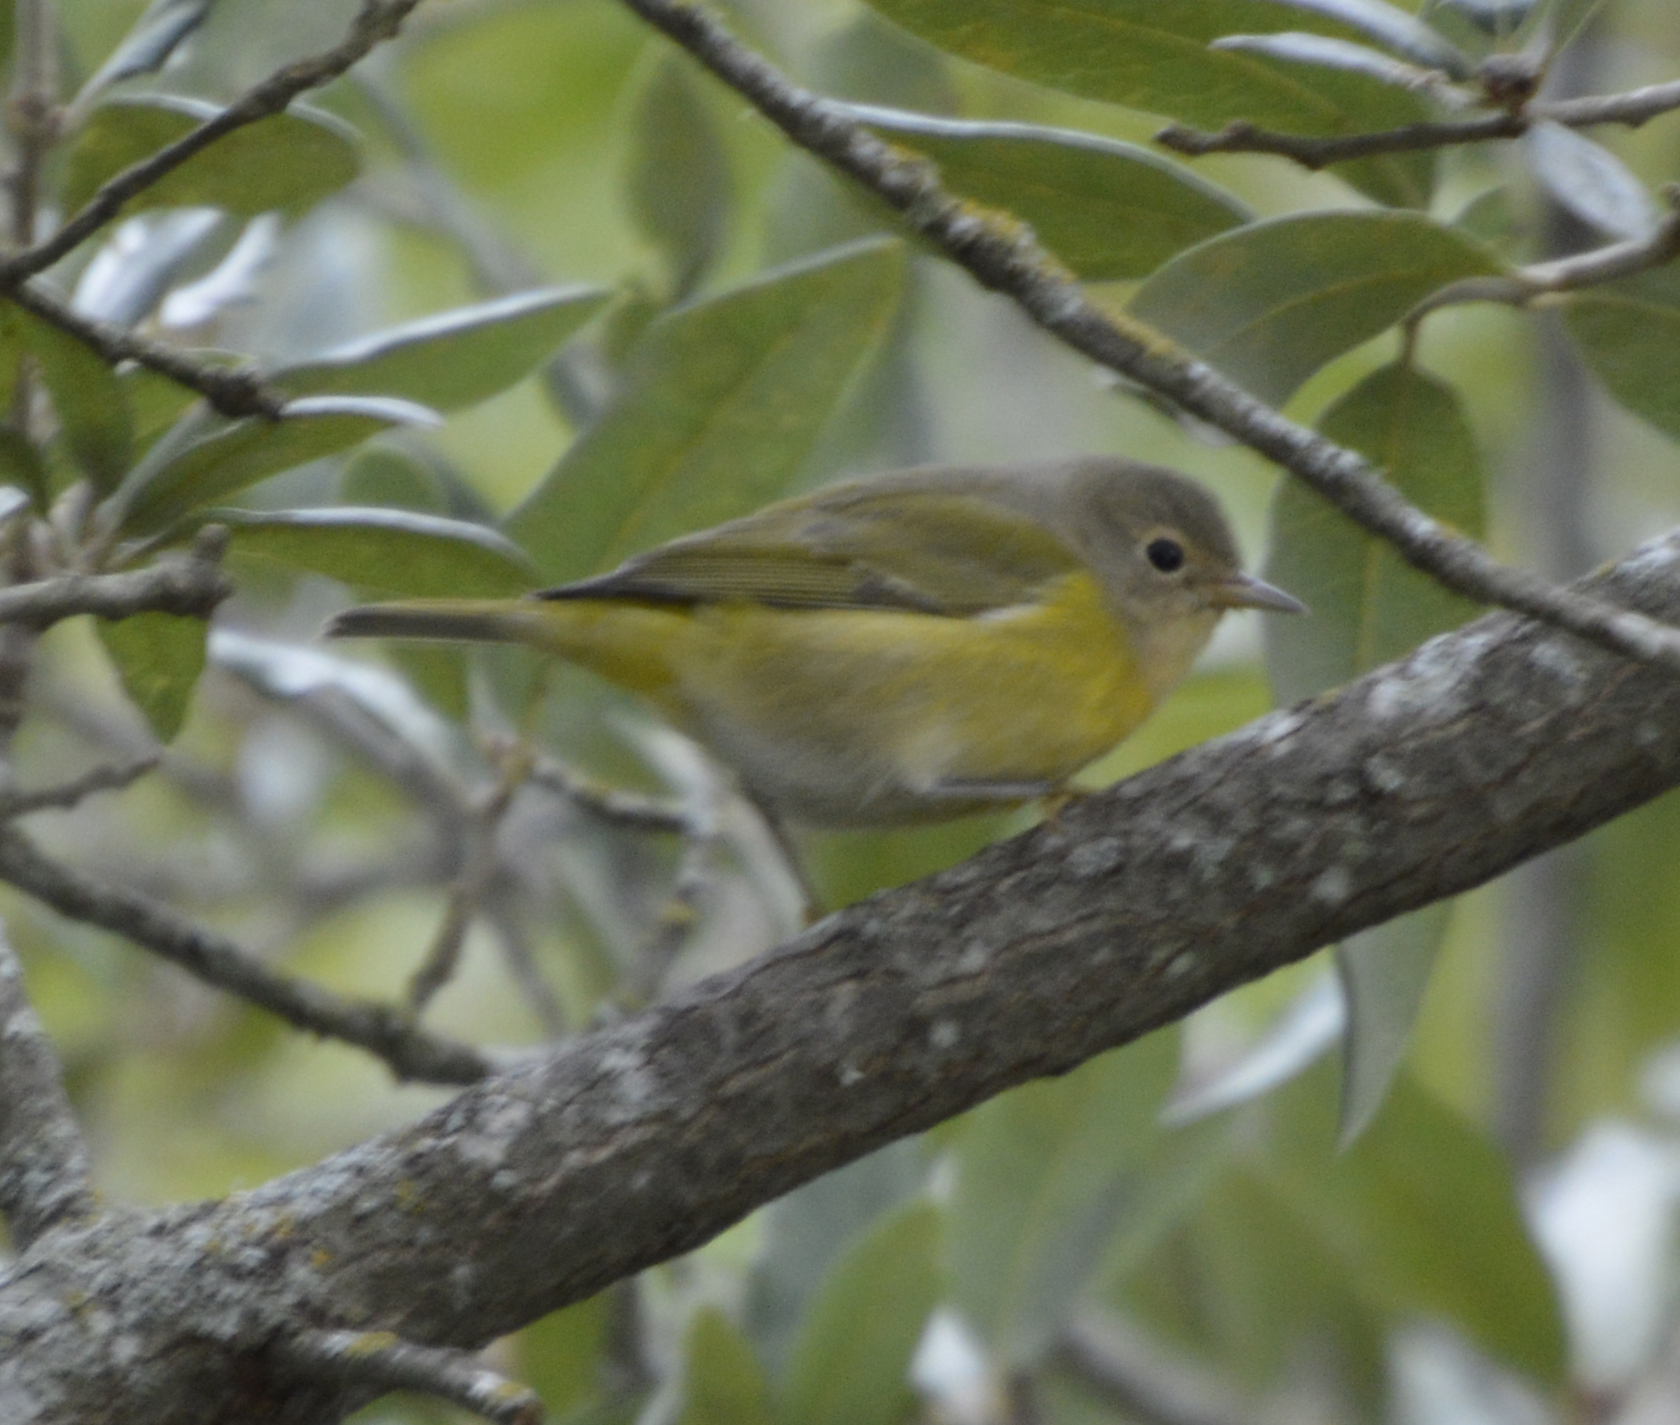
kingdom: Animalia
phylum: Chordata
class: Aves
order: Passeriformes
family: Parulidae
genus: Leiothlypis
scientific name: Leiothlypis ruficapilla
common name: Nashville warbler
